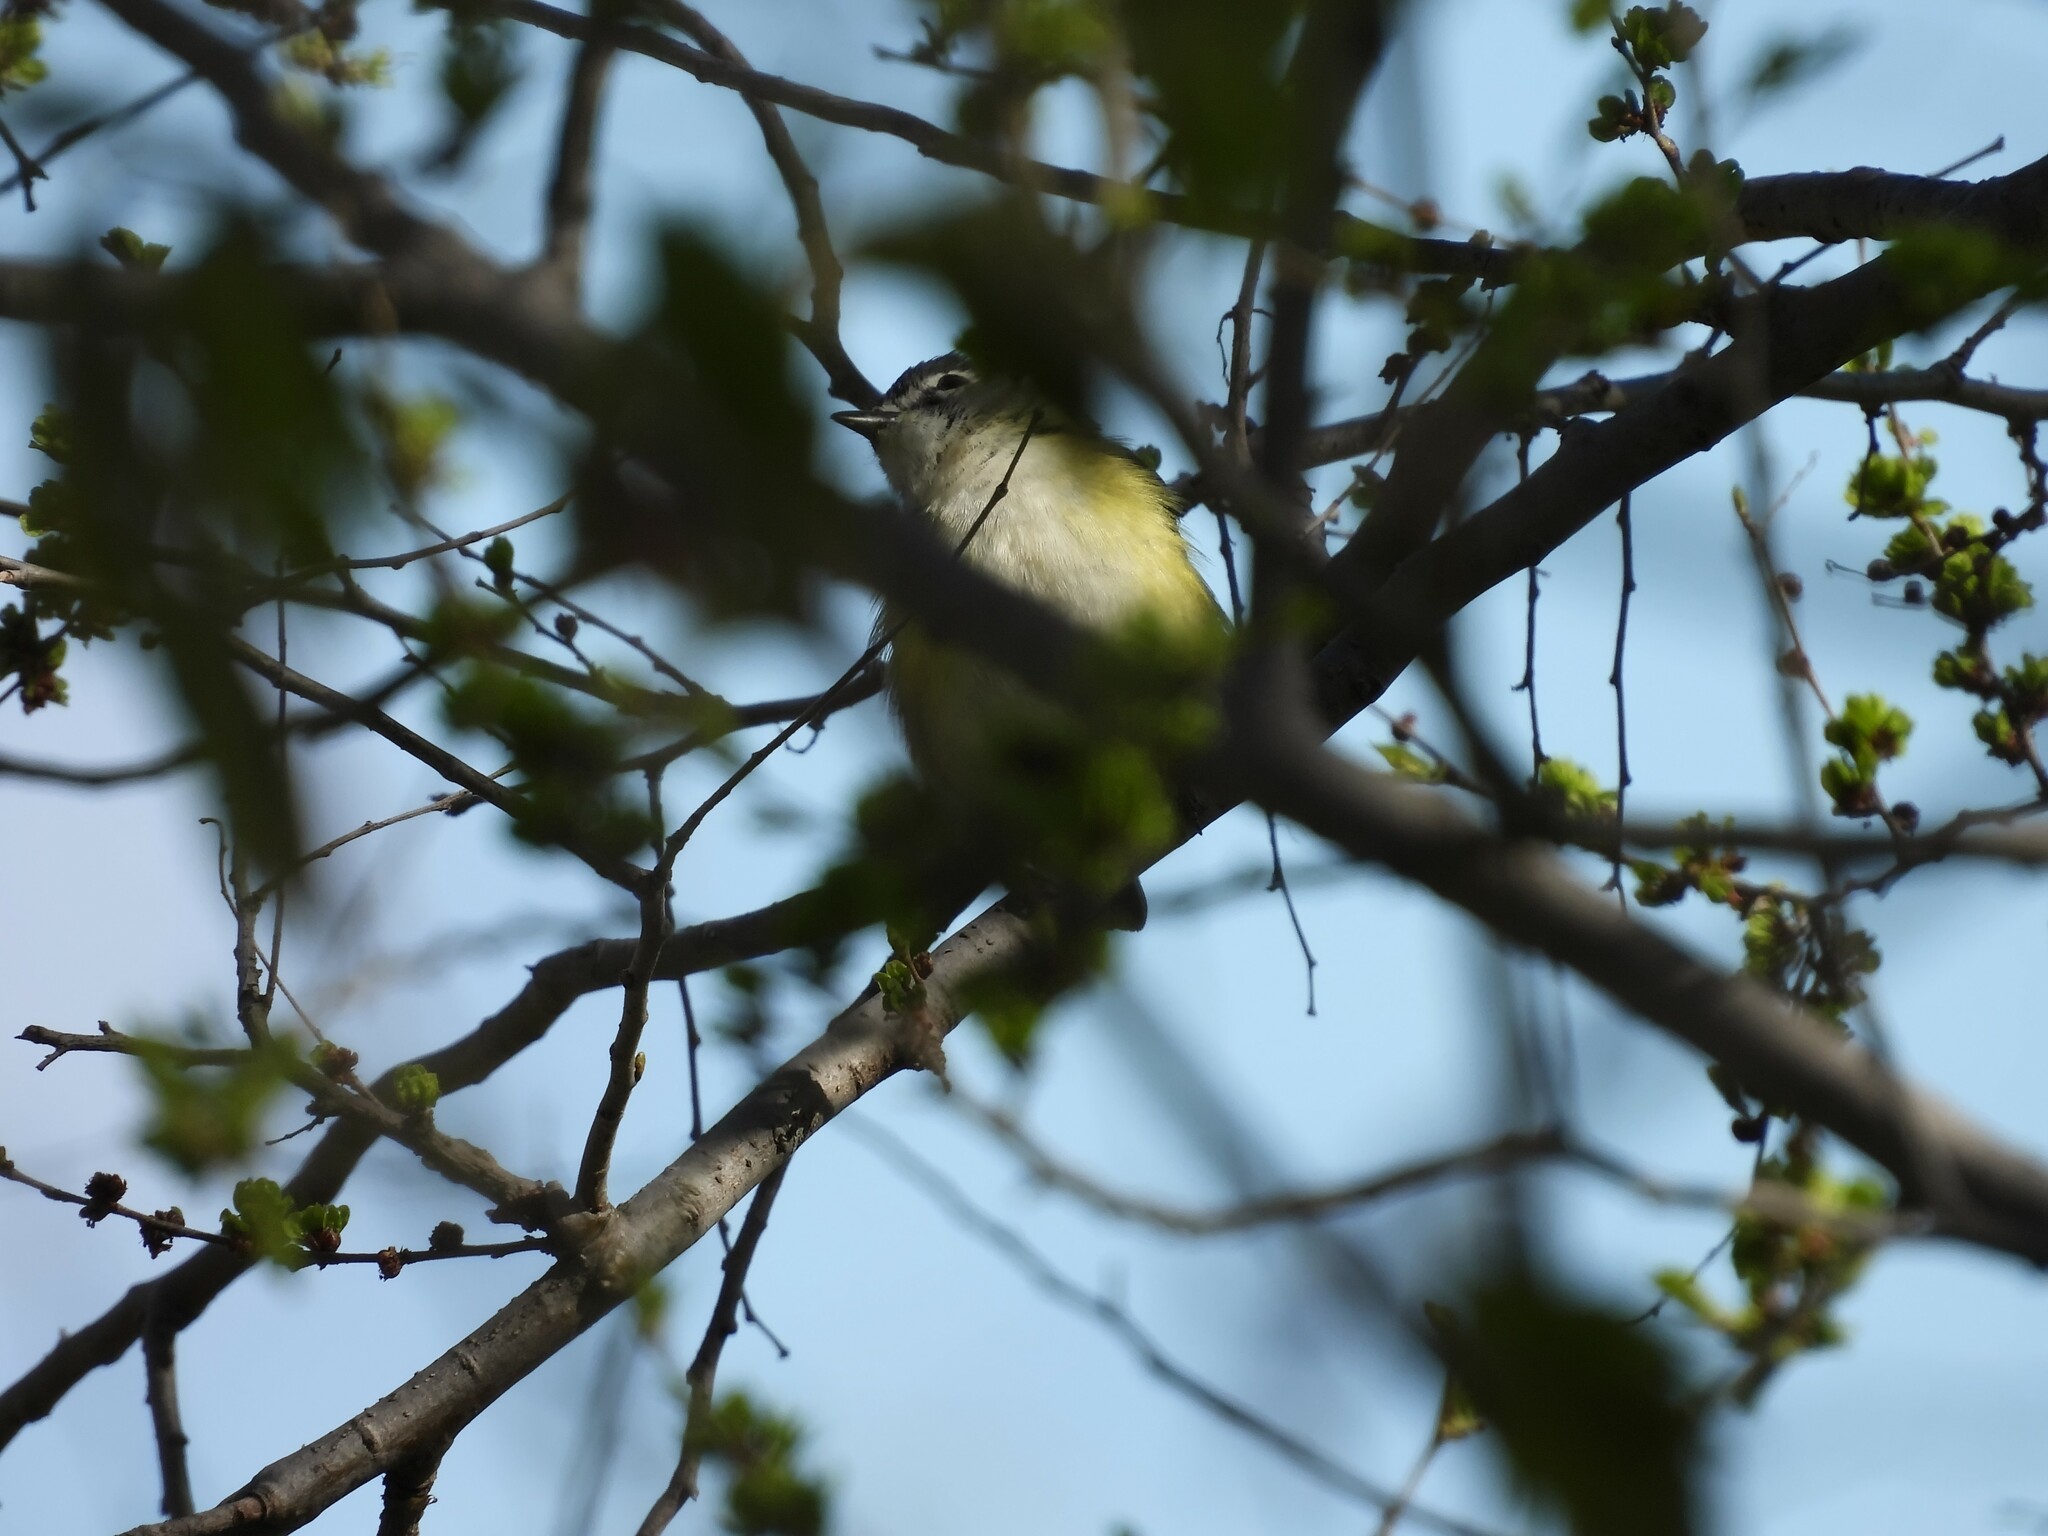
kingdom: Animalia
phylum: Chordata
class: Aves
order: Passeriformes
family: Vireonidae
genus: Vireo
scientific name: Vireo solitarius
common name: Blue-headed vireo
